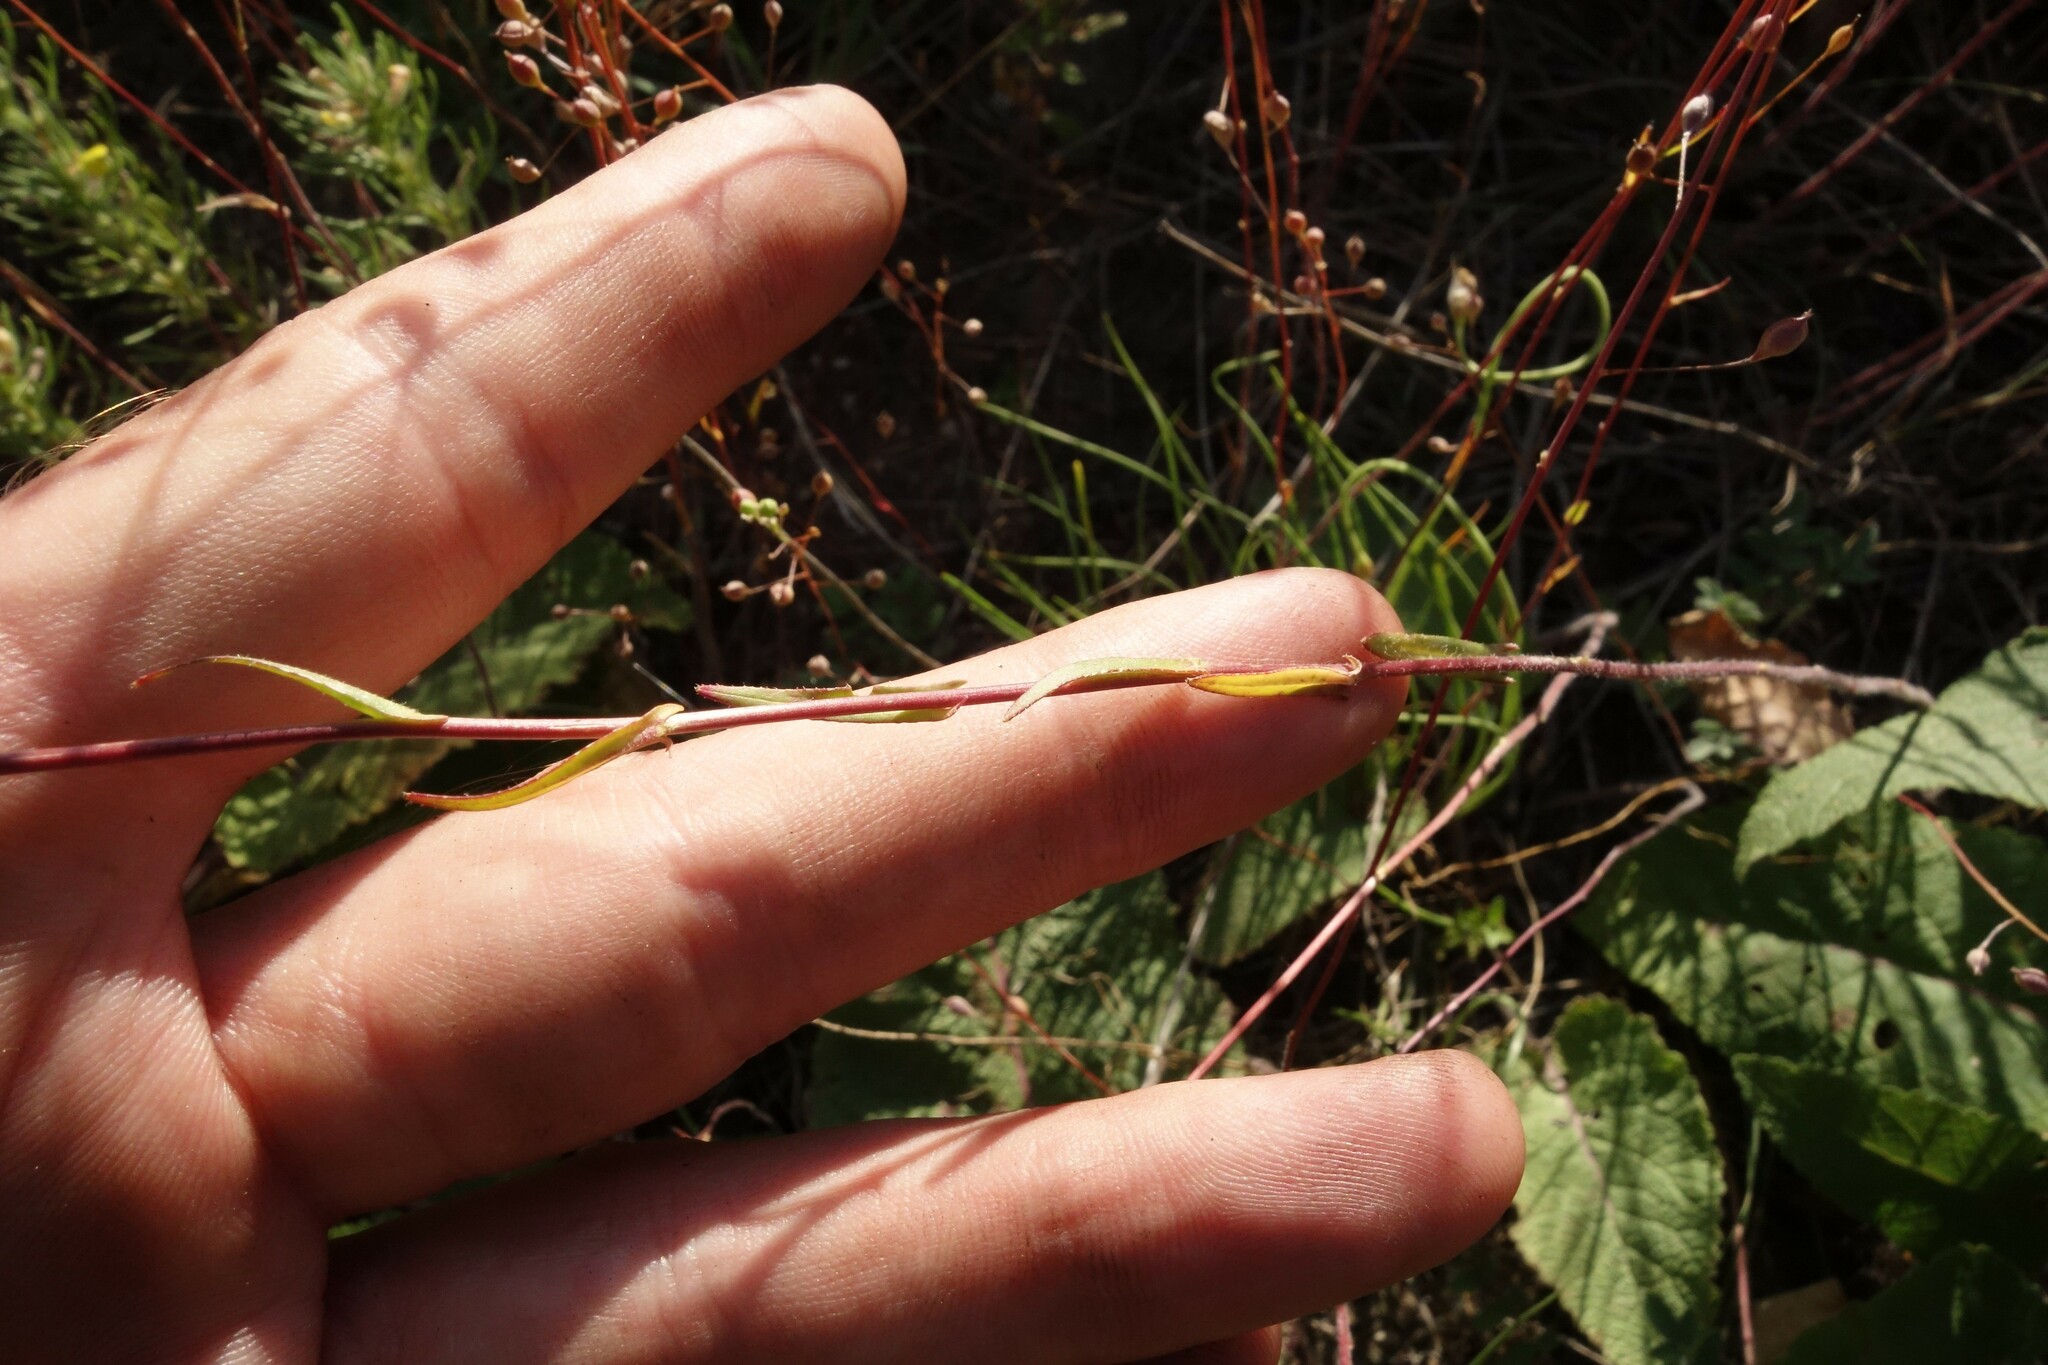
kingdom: Plantae
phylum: Tracheophyta
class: Magnoliopsida
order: Brassicales
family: Brassicaceae
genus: Camelina
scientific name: Camelina microcarpa
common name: Lesser gold-of-pleasure
